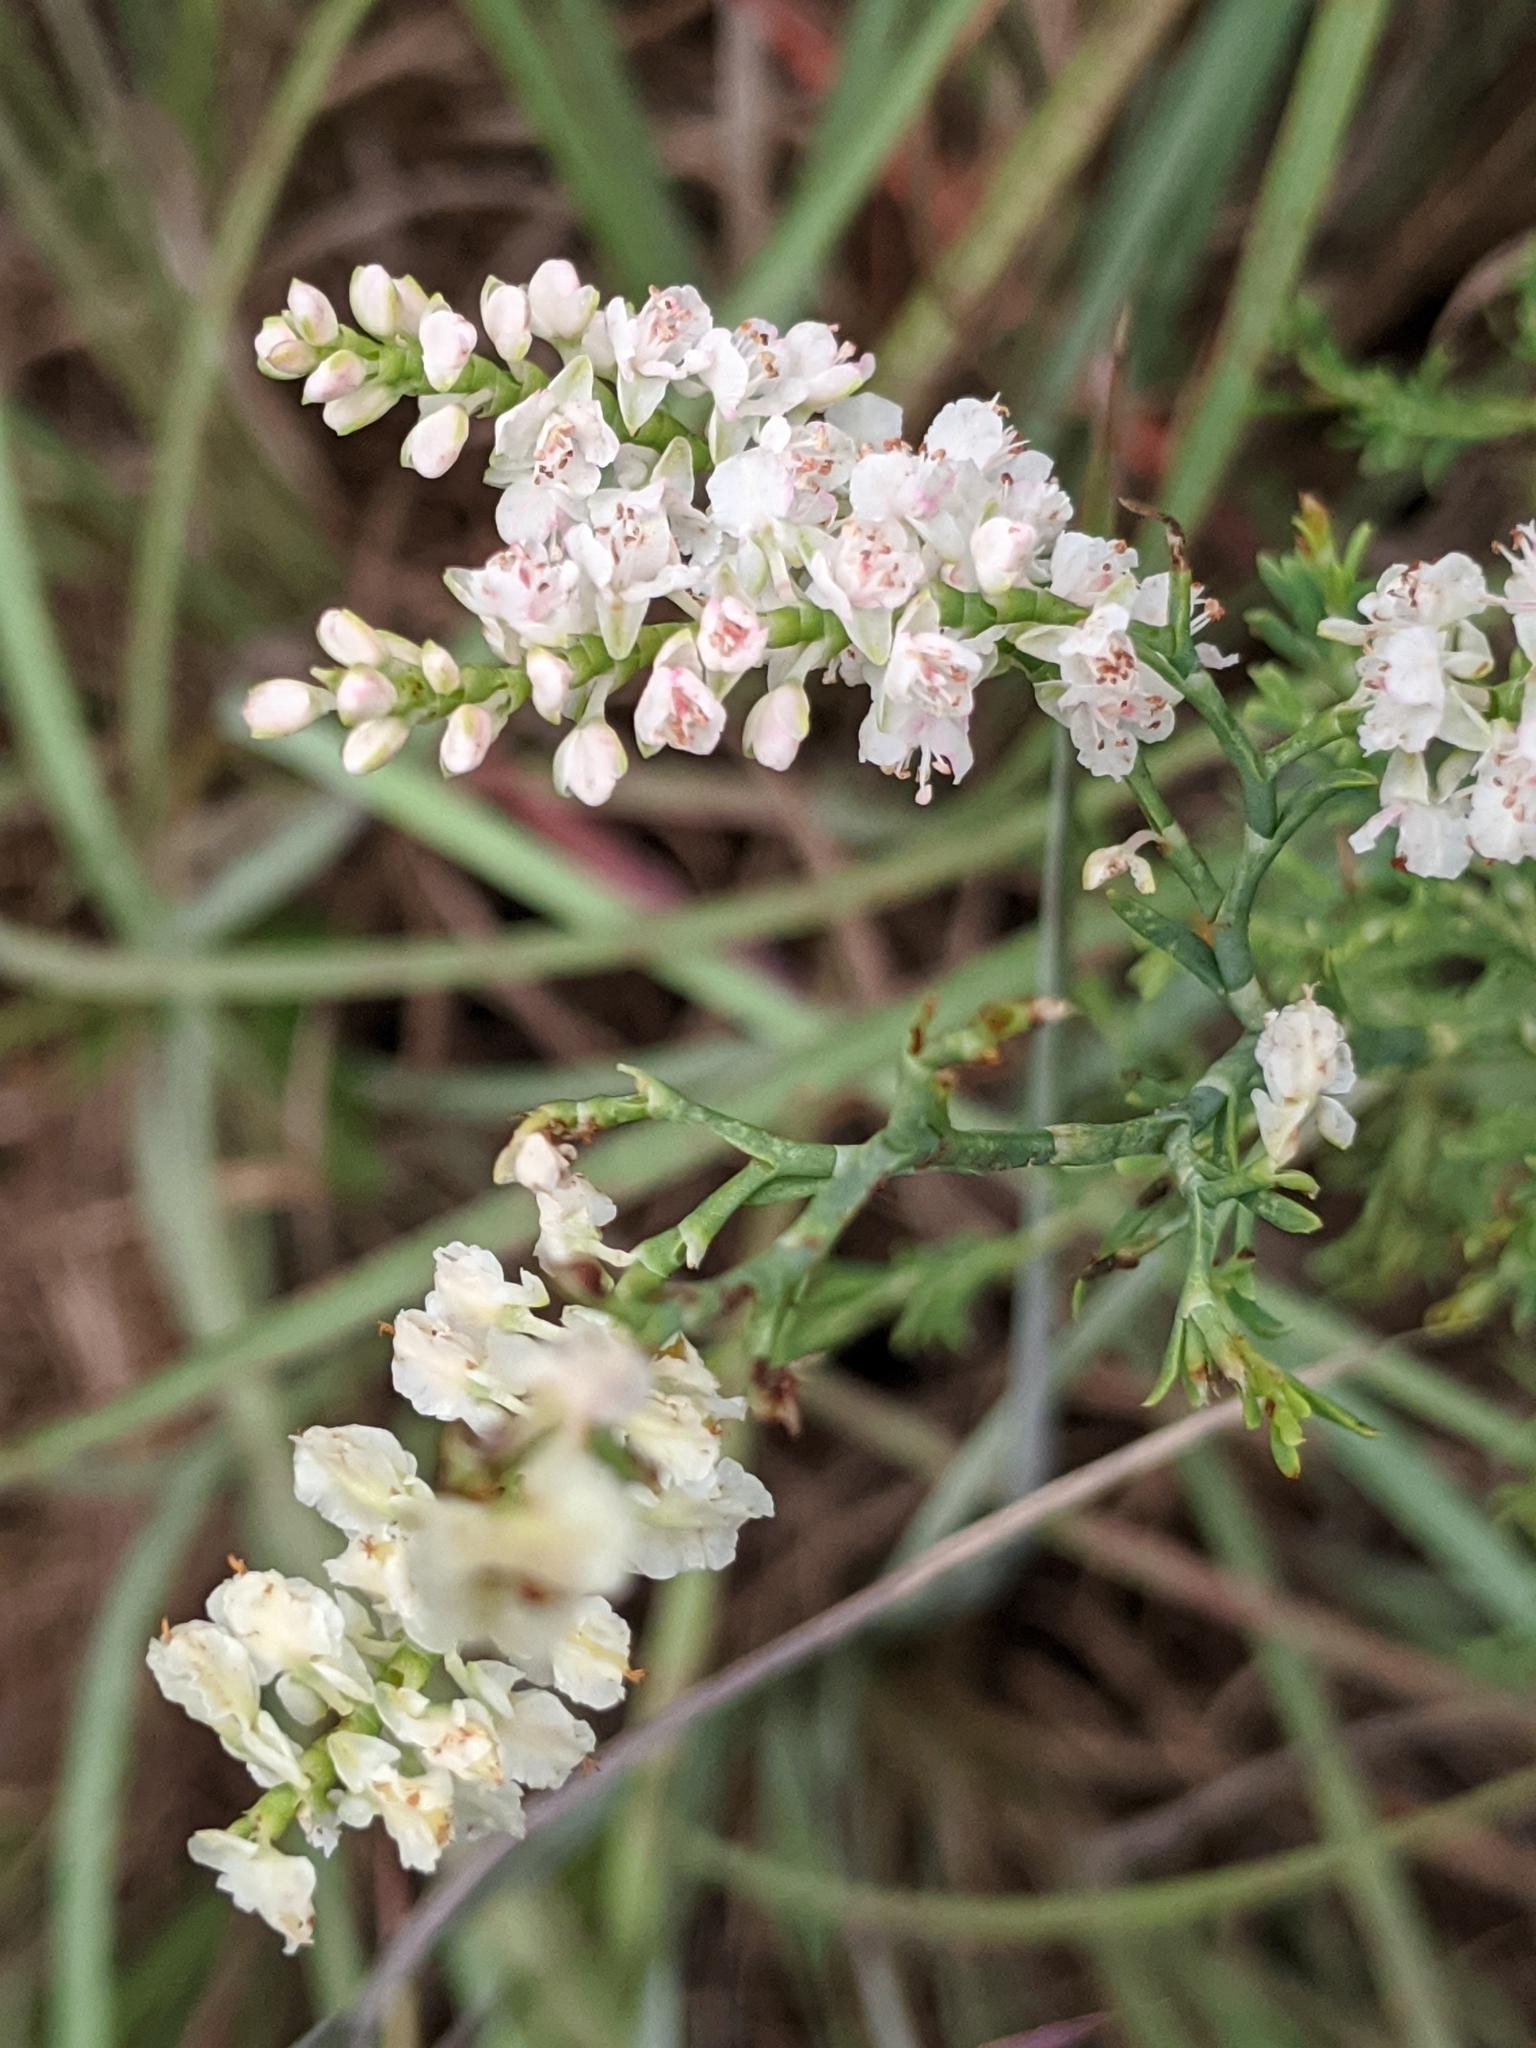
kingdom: Plantae
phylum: Tracheophyta
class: Magnoliopsida
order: Caryophyllales
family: Polygonaceae
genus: Polygonella
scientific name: Polygonella americana
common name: Southern jointweed
